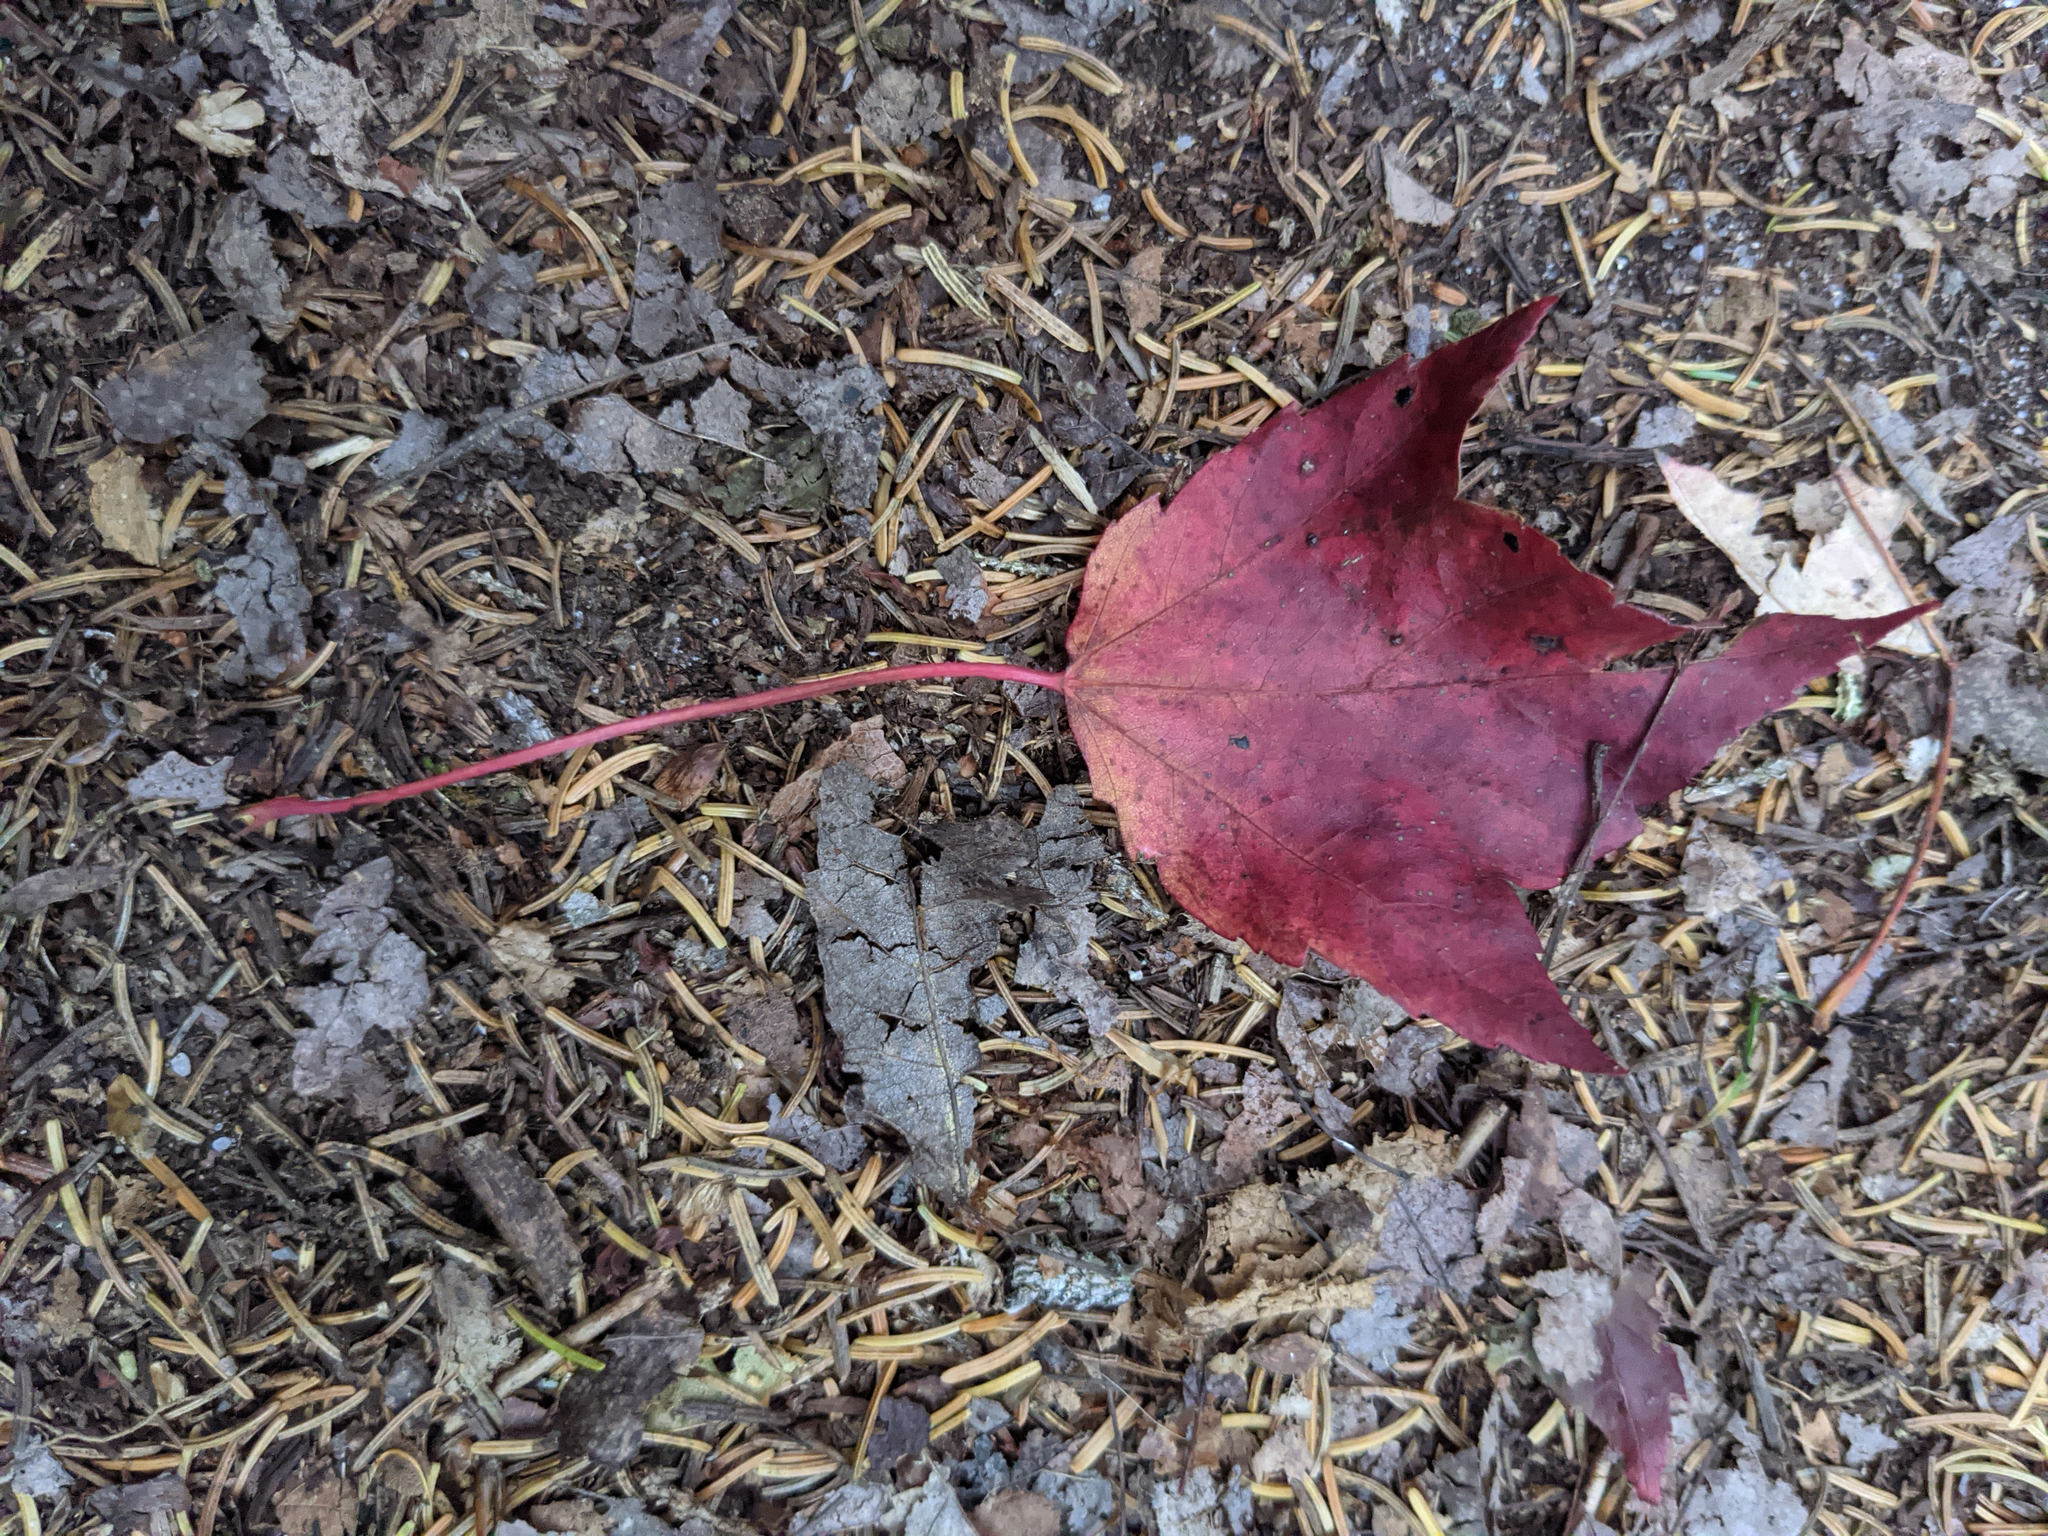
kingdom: Plantae
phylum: Tracheophyta
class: Magnoliopsida
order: Sapindales
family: Sapindaceae
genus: Acer
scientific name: Acer rubrum
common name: Red maple
